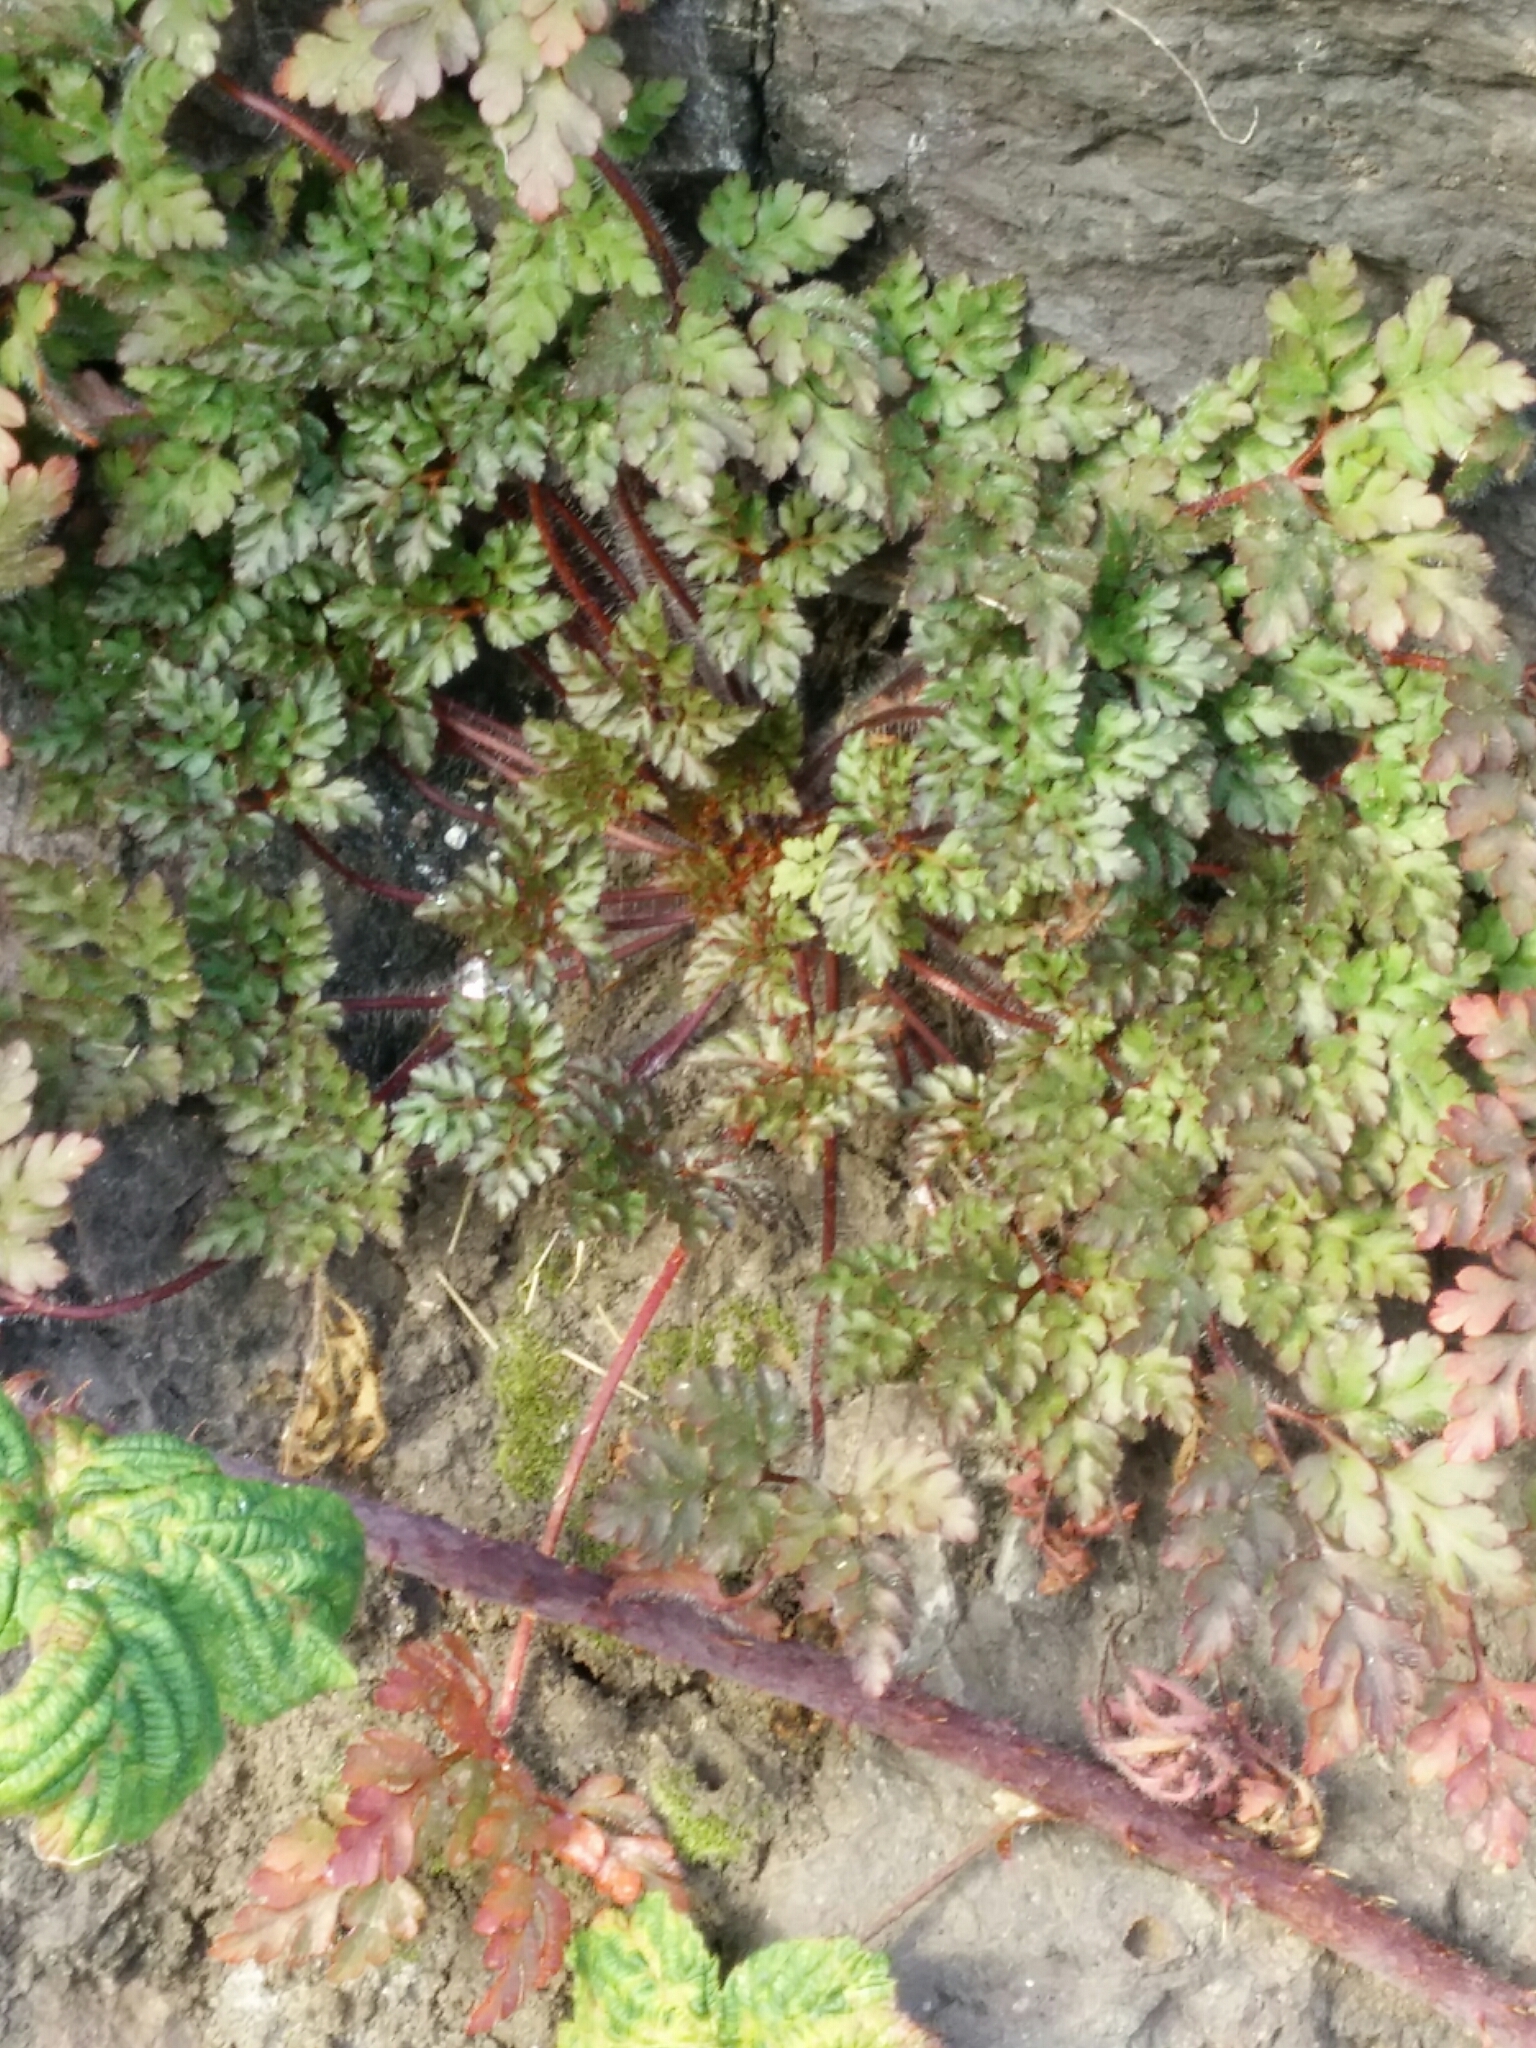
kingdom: Plantae
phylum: Tracheophyta
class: Magnoliopsida
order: Geraniales
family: Geraniaceae
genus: Geranium
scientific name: Geranium robertianum
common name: Herb-robert
